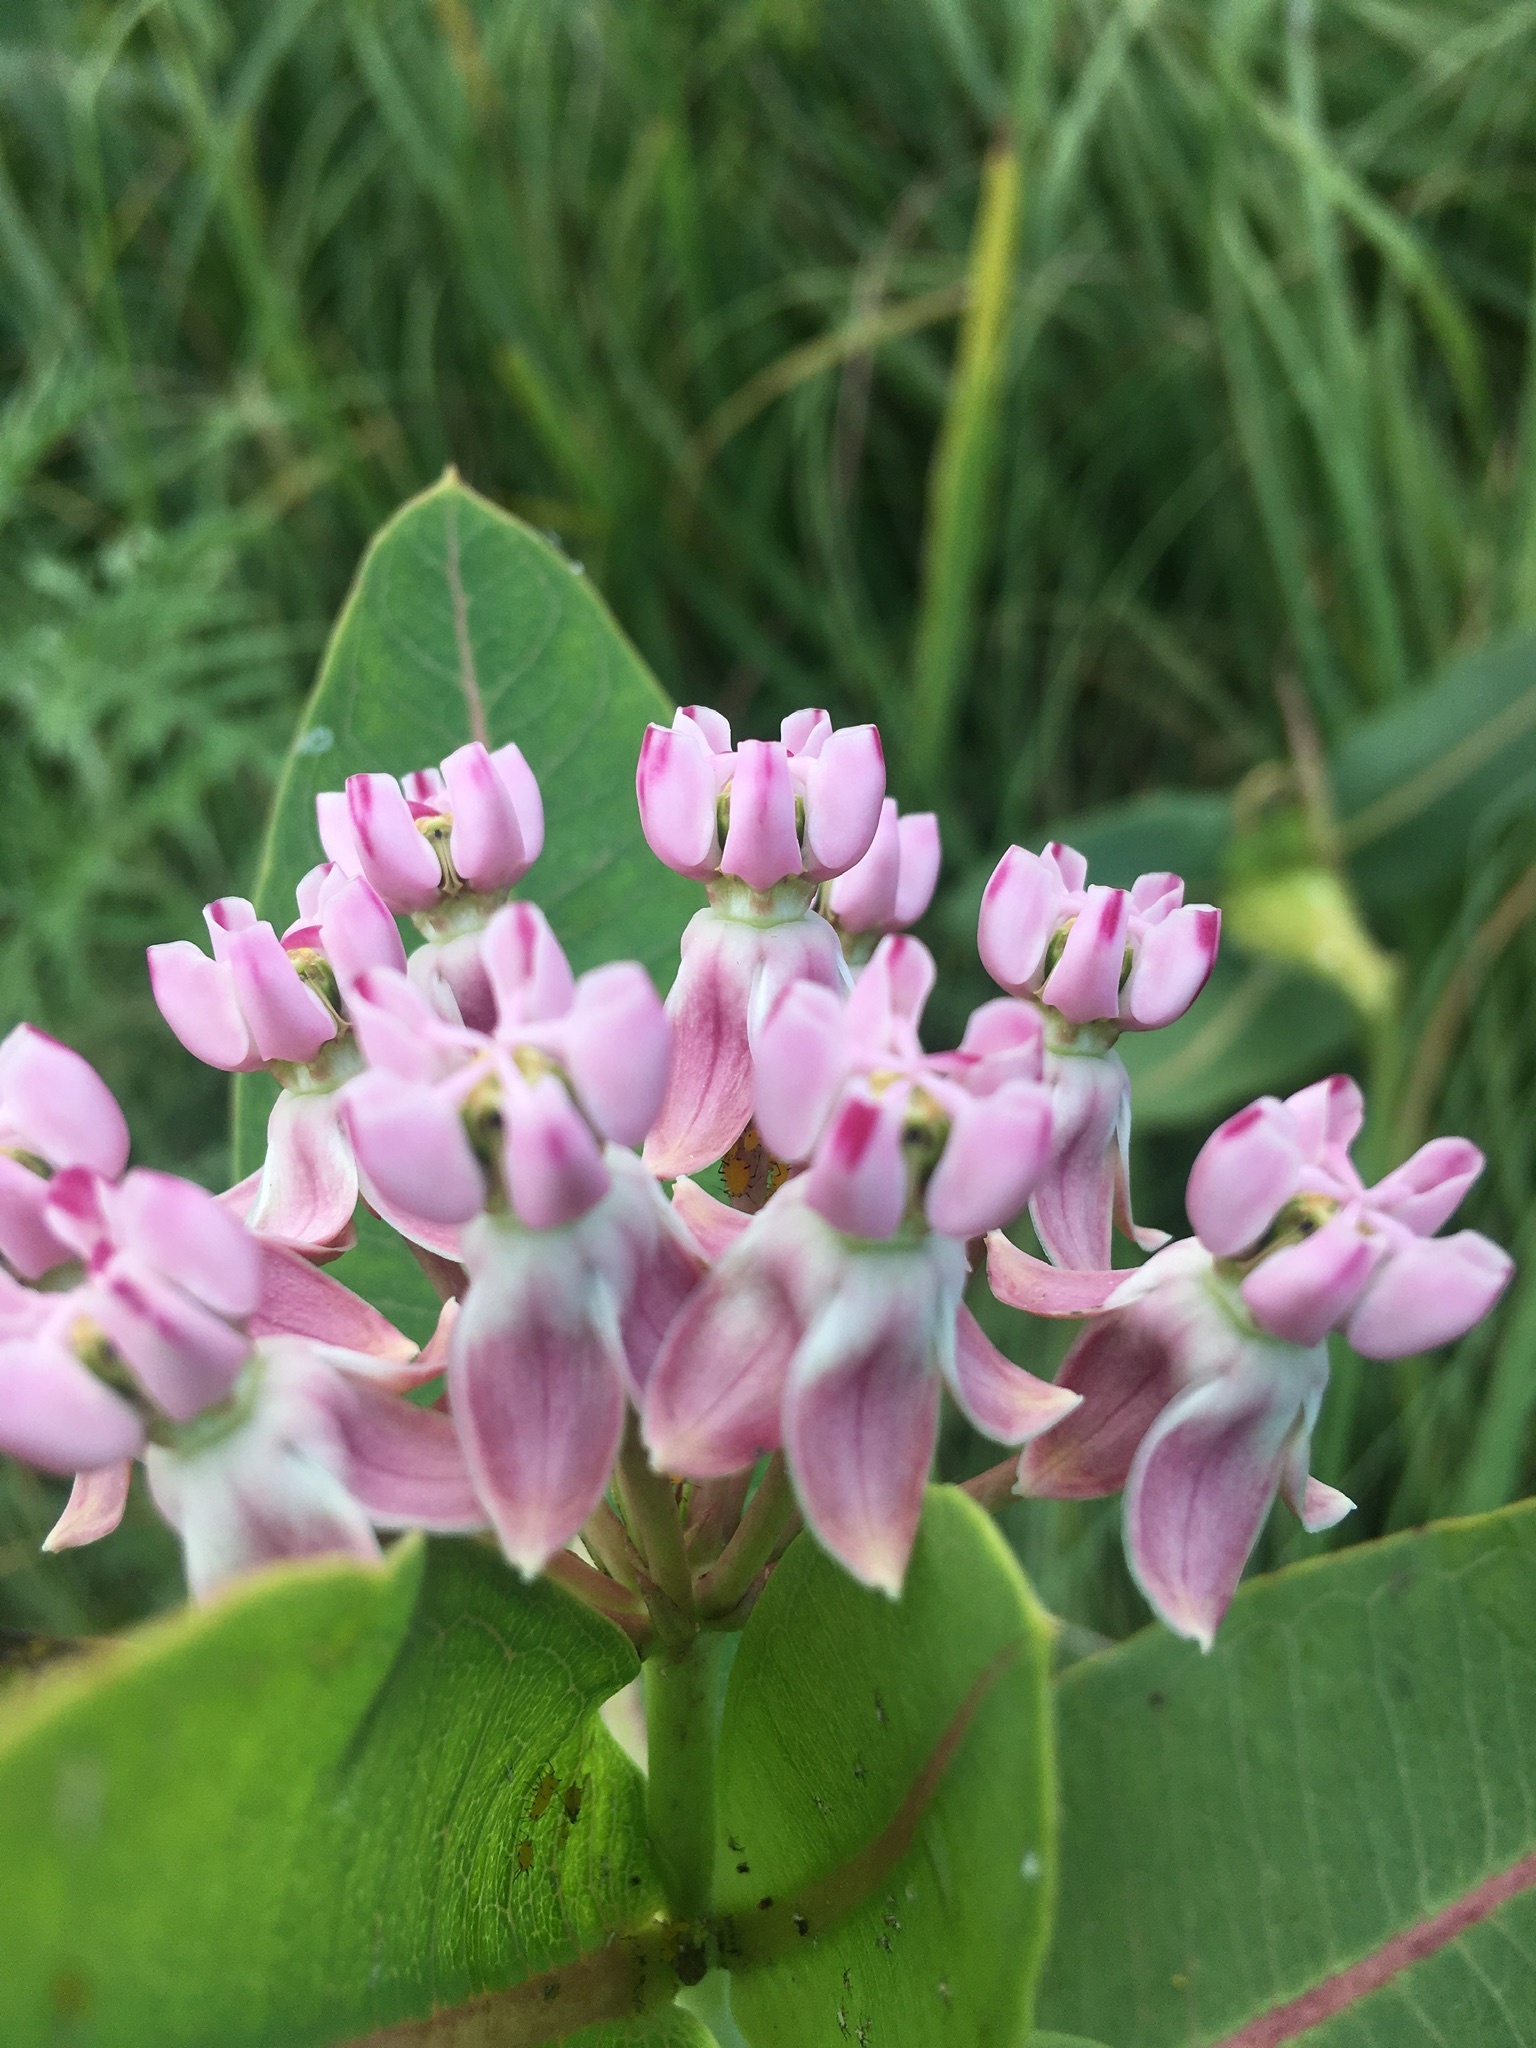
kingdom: Plantae
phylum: Tracheophyta
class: Magnoliopsida
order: Gentianales
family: Apocynaceae
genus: Asclepias
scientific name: Asclepias sullivantii
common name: Prairie milkweed
